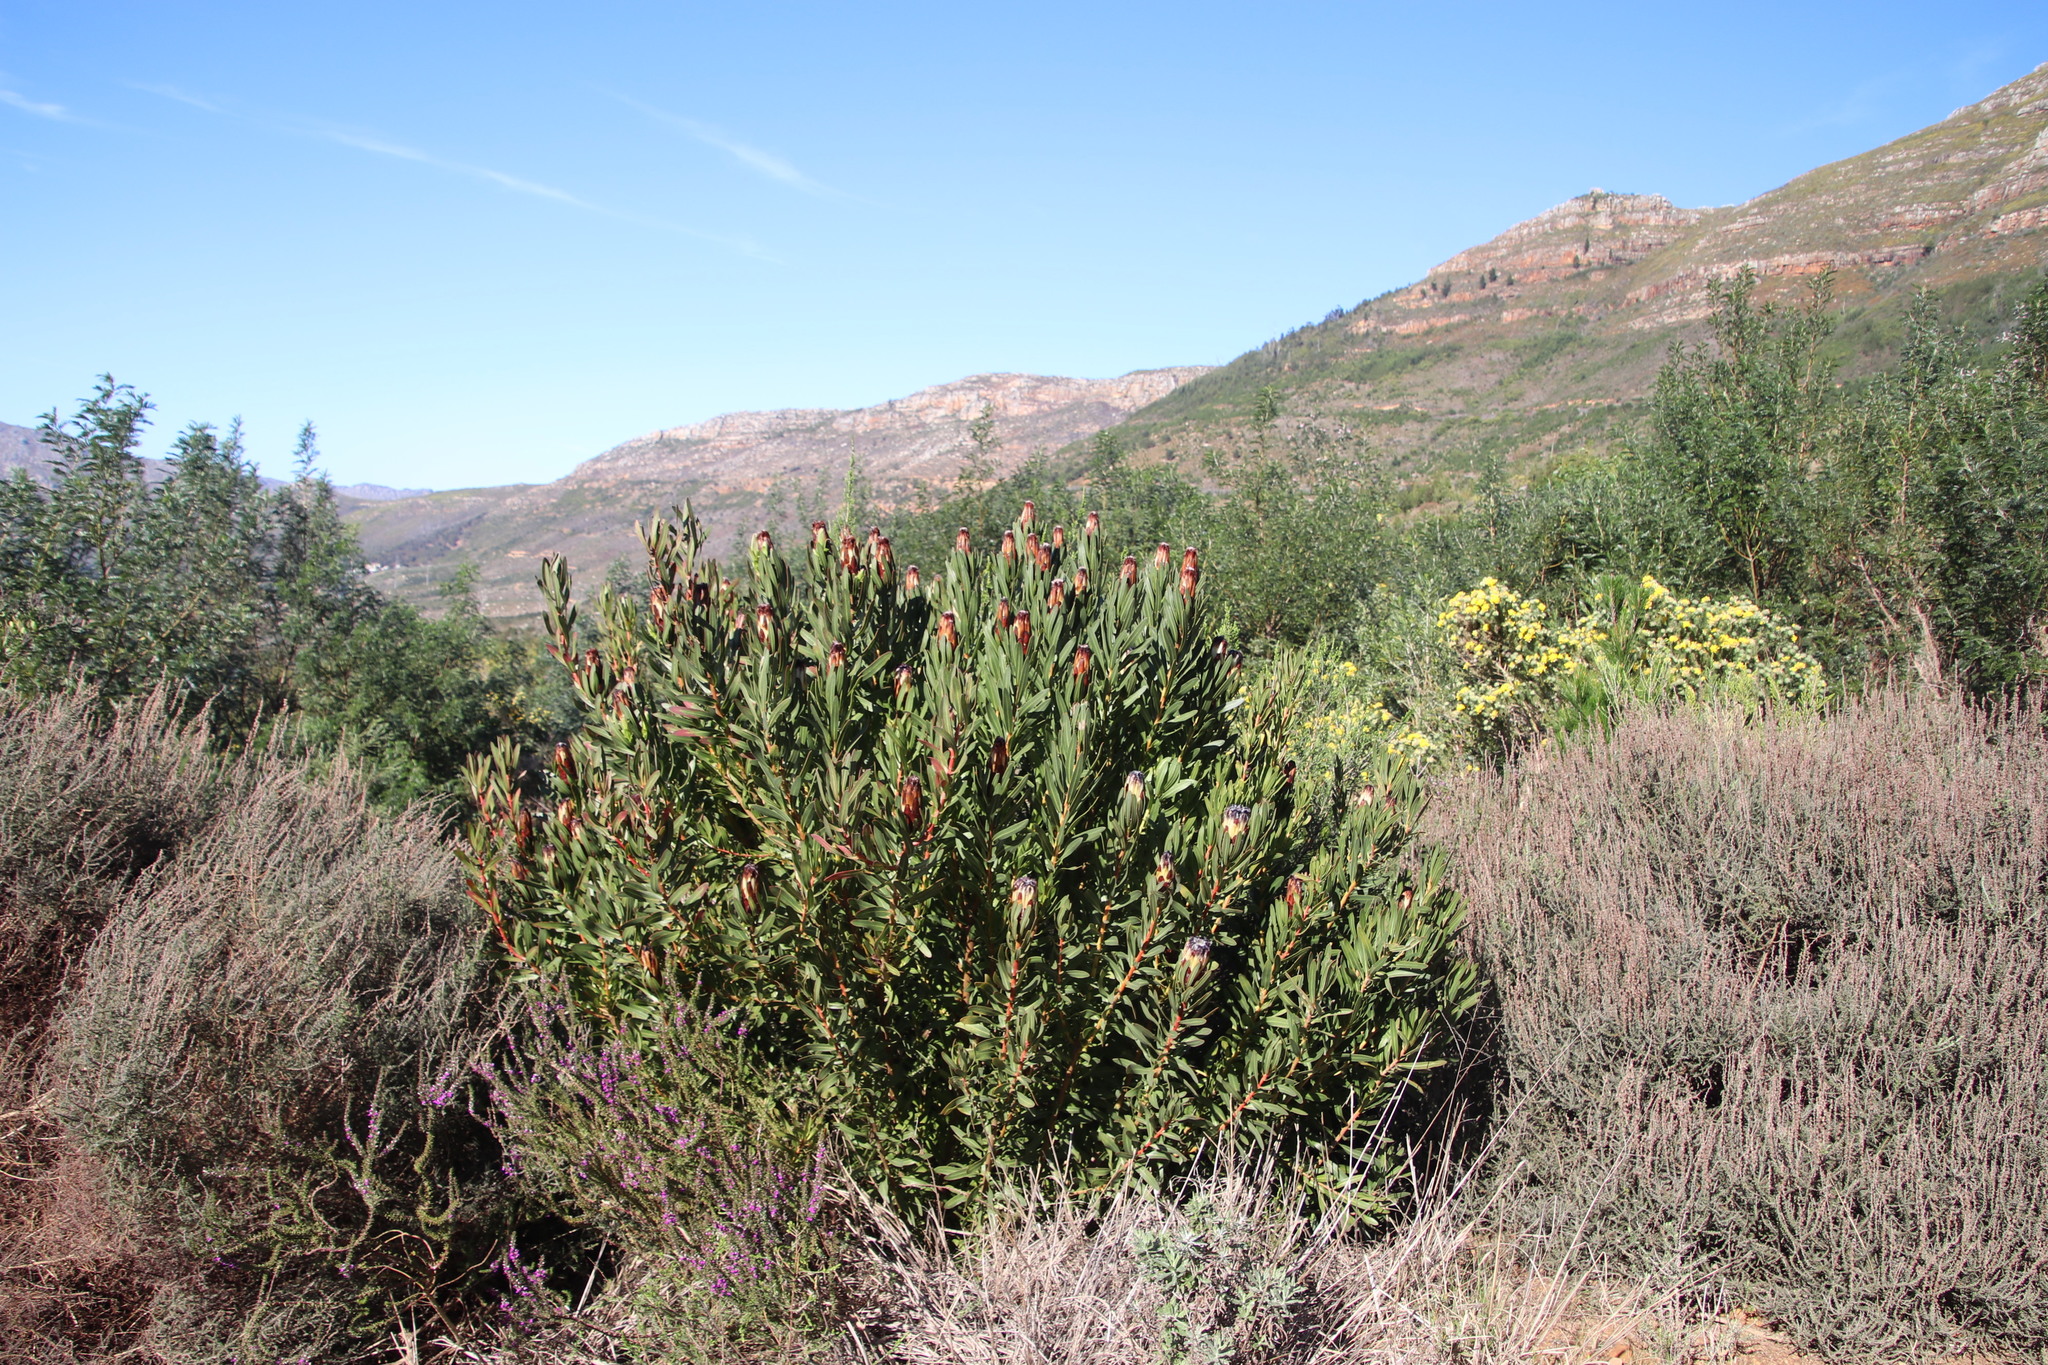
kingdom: Plantae
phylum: Tracheophyta
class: Magnoliopsida
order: Proteales
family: Proteaceae
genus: Protea
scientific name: Protea lepidocarpodendron
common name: Black-bearded protea
